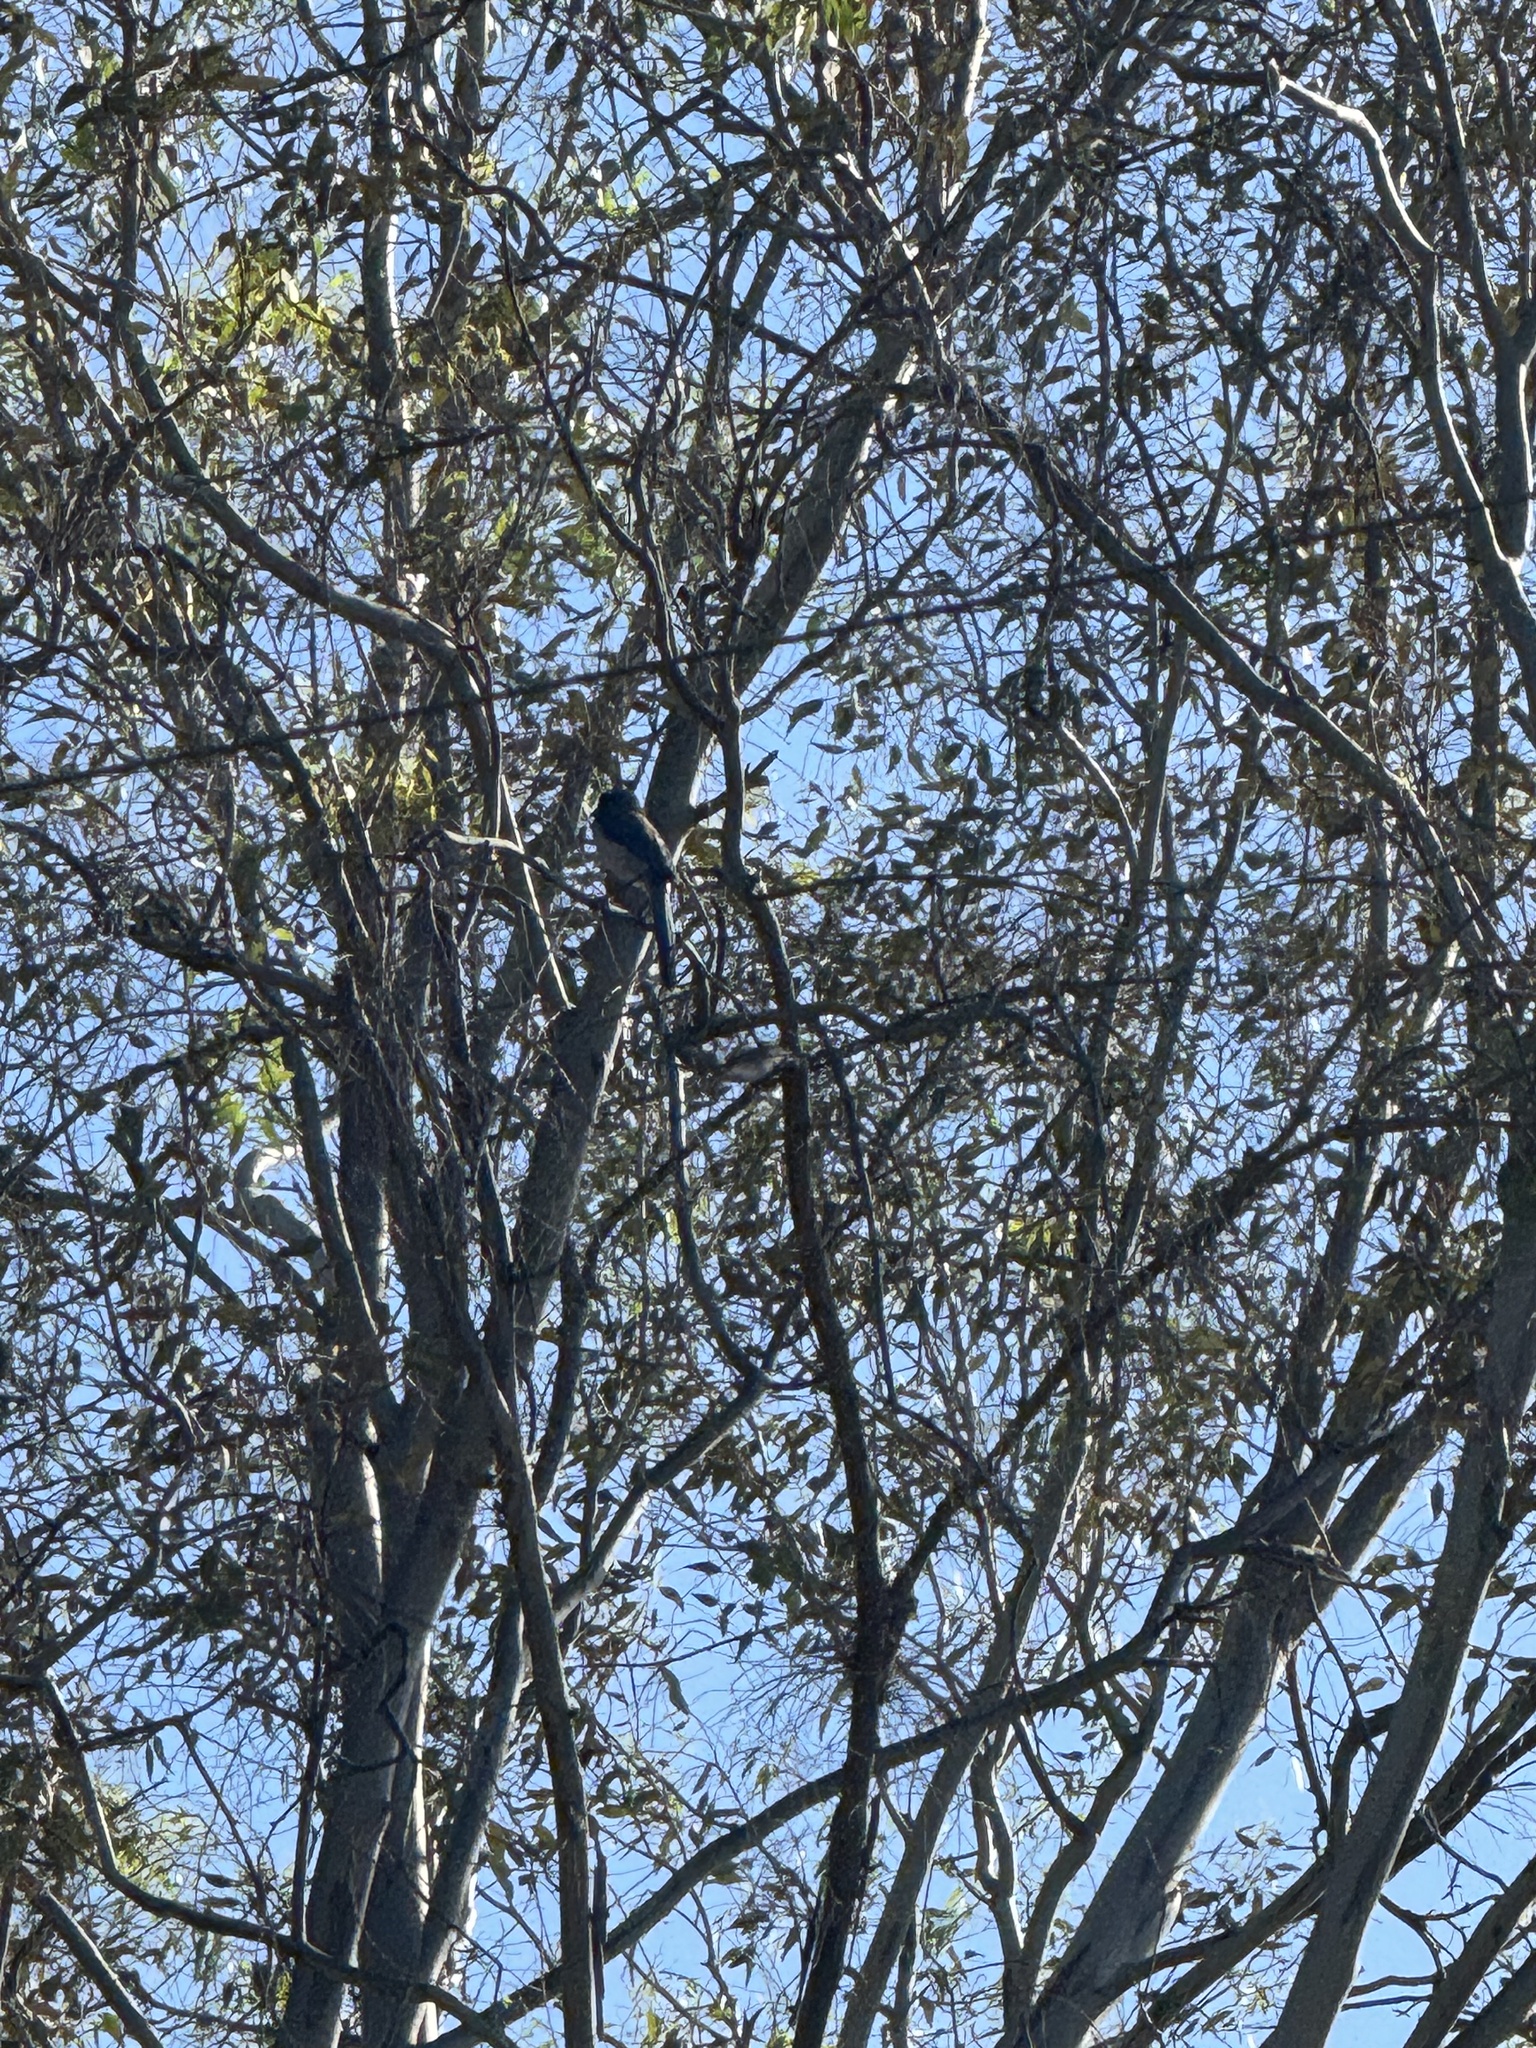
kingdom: Animalia
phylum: Chordata
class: Aves
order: Passeriformes
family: Corvidae
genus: Aphelocoma
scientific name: Aphelocoma californica
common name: California scrub-jay
